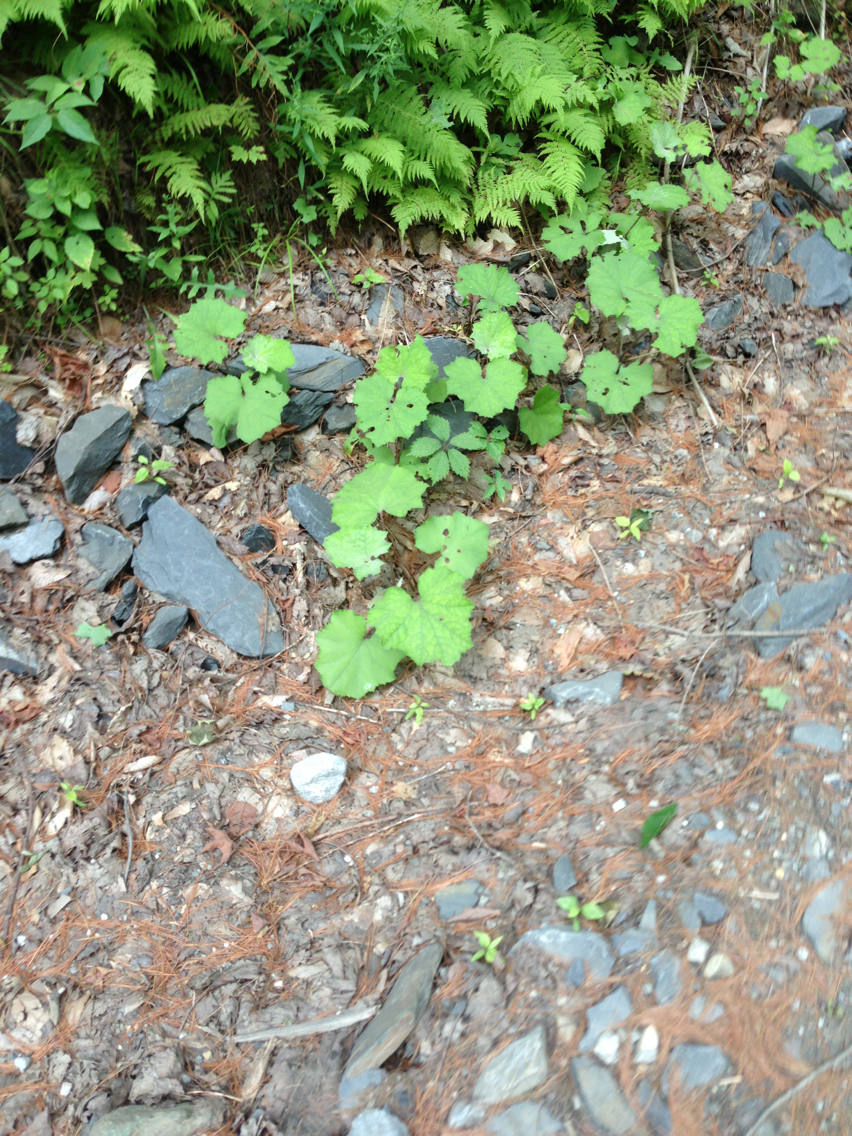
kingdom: Plantae
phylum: Tracheophyta
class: Magnoliopsida
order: Asterales
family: Asteraceae
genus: Tussilago
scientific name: Tussilago farfara
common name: Coltsfoot
